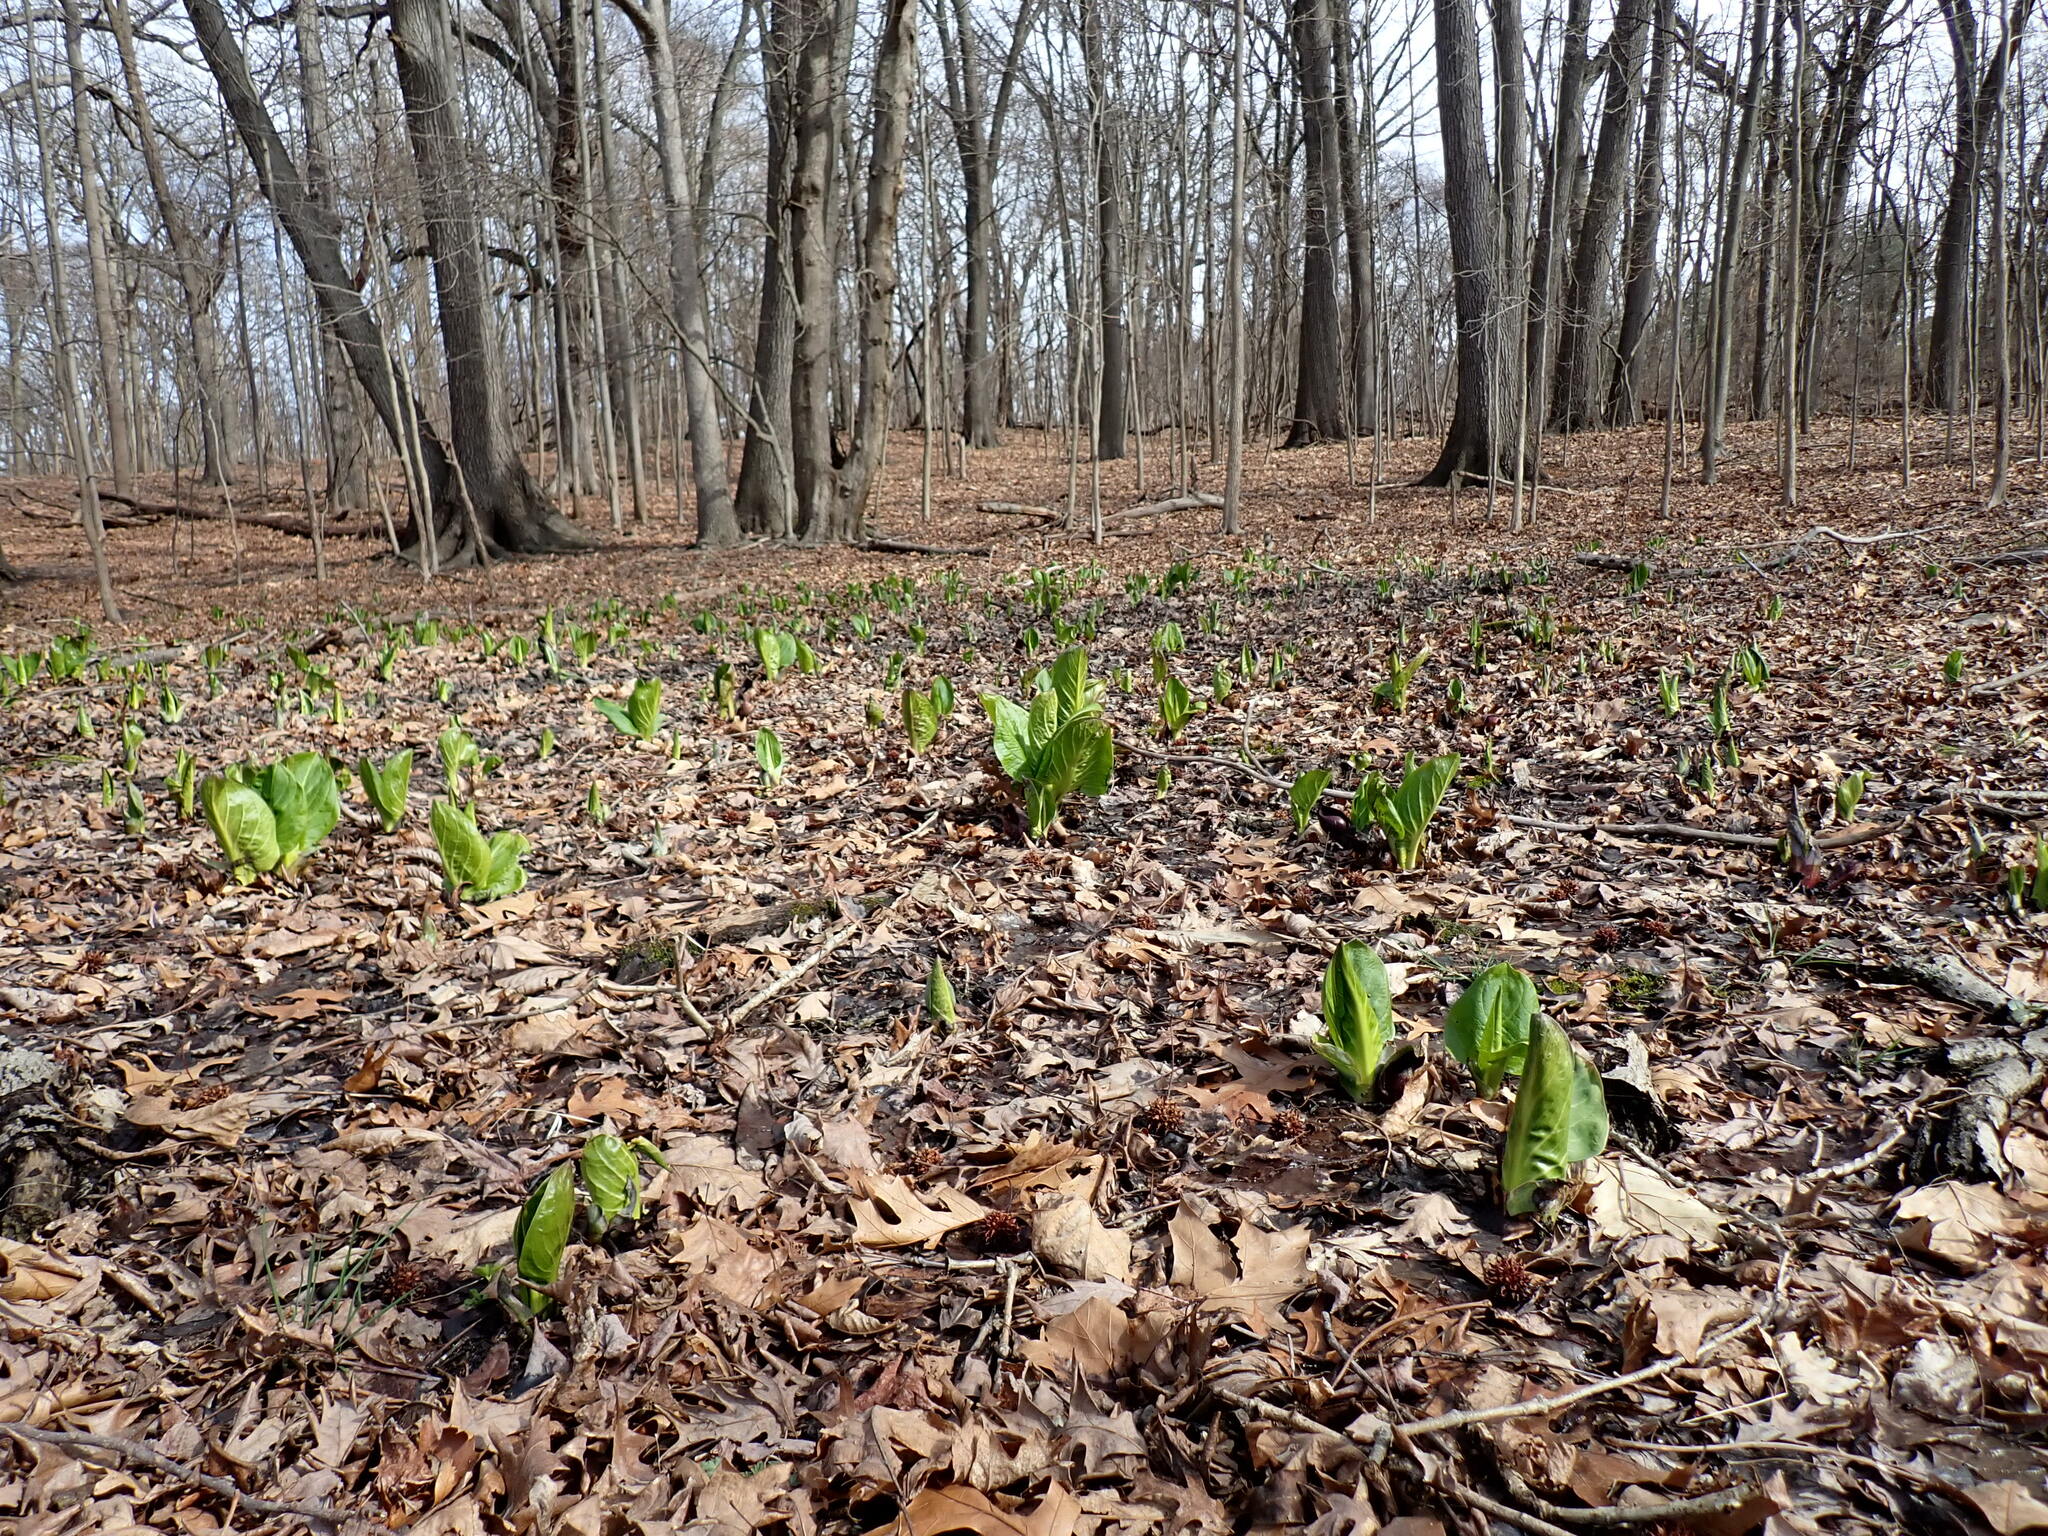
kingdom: Plantae
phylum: Tracheophyta
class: Liliopsida
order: Alismatales
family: Araceae
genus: Symplocarpus
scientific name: Symplocarpus foetidus
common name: Eastern skunk cabbage
